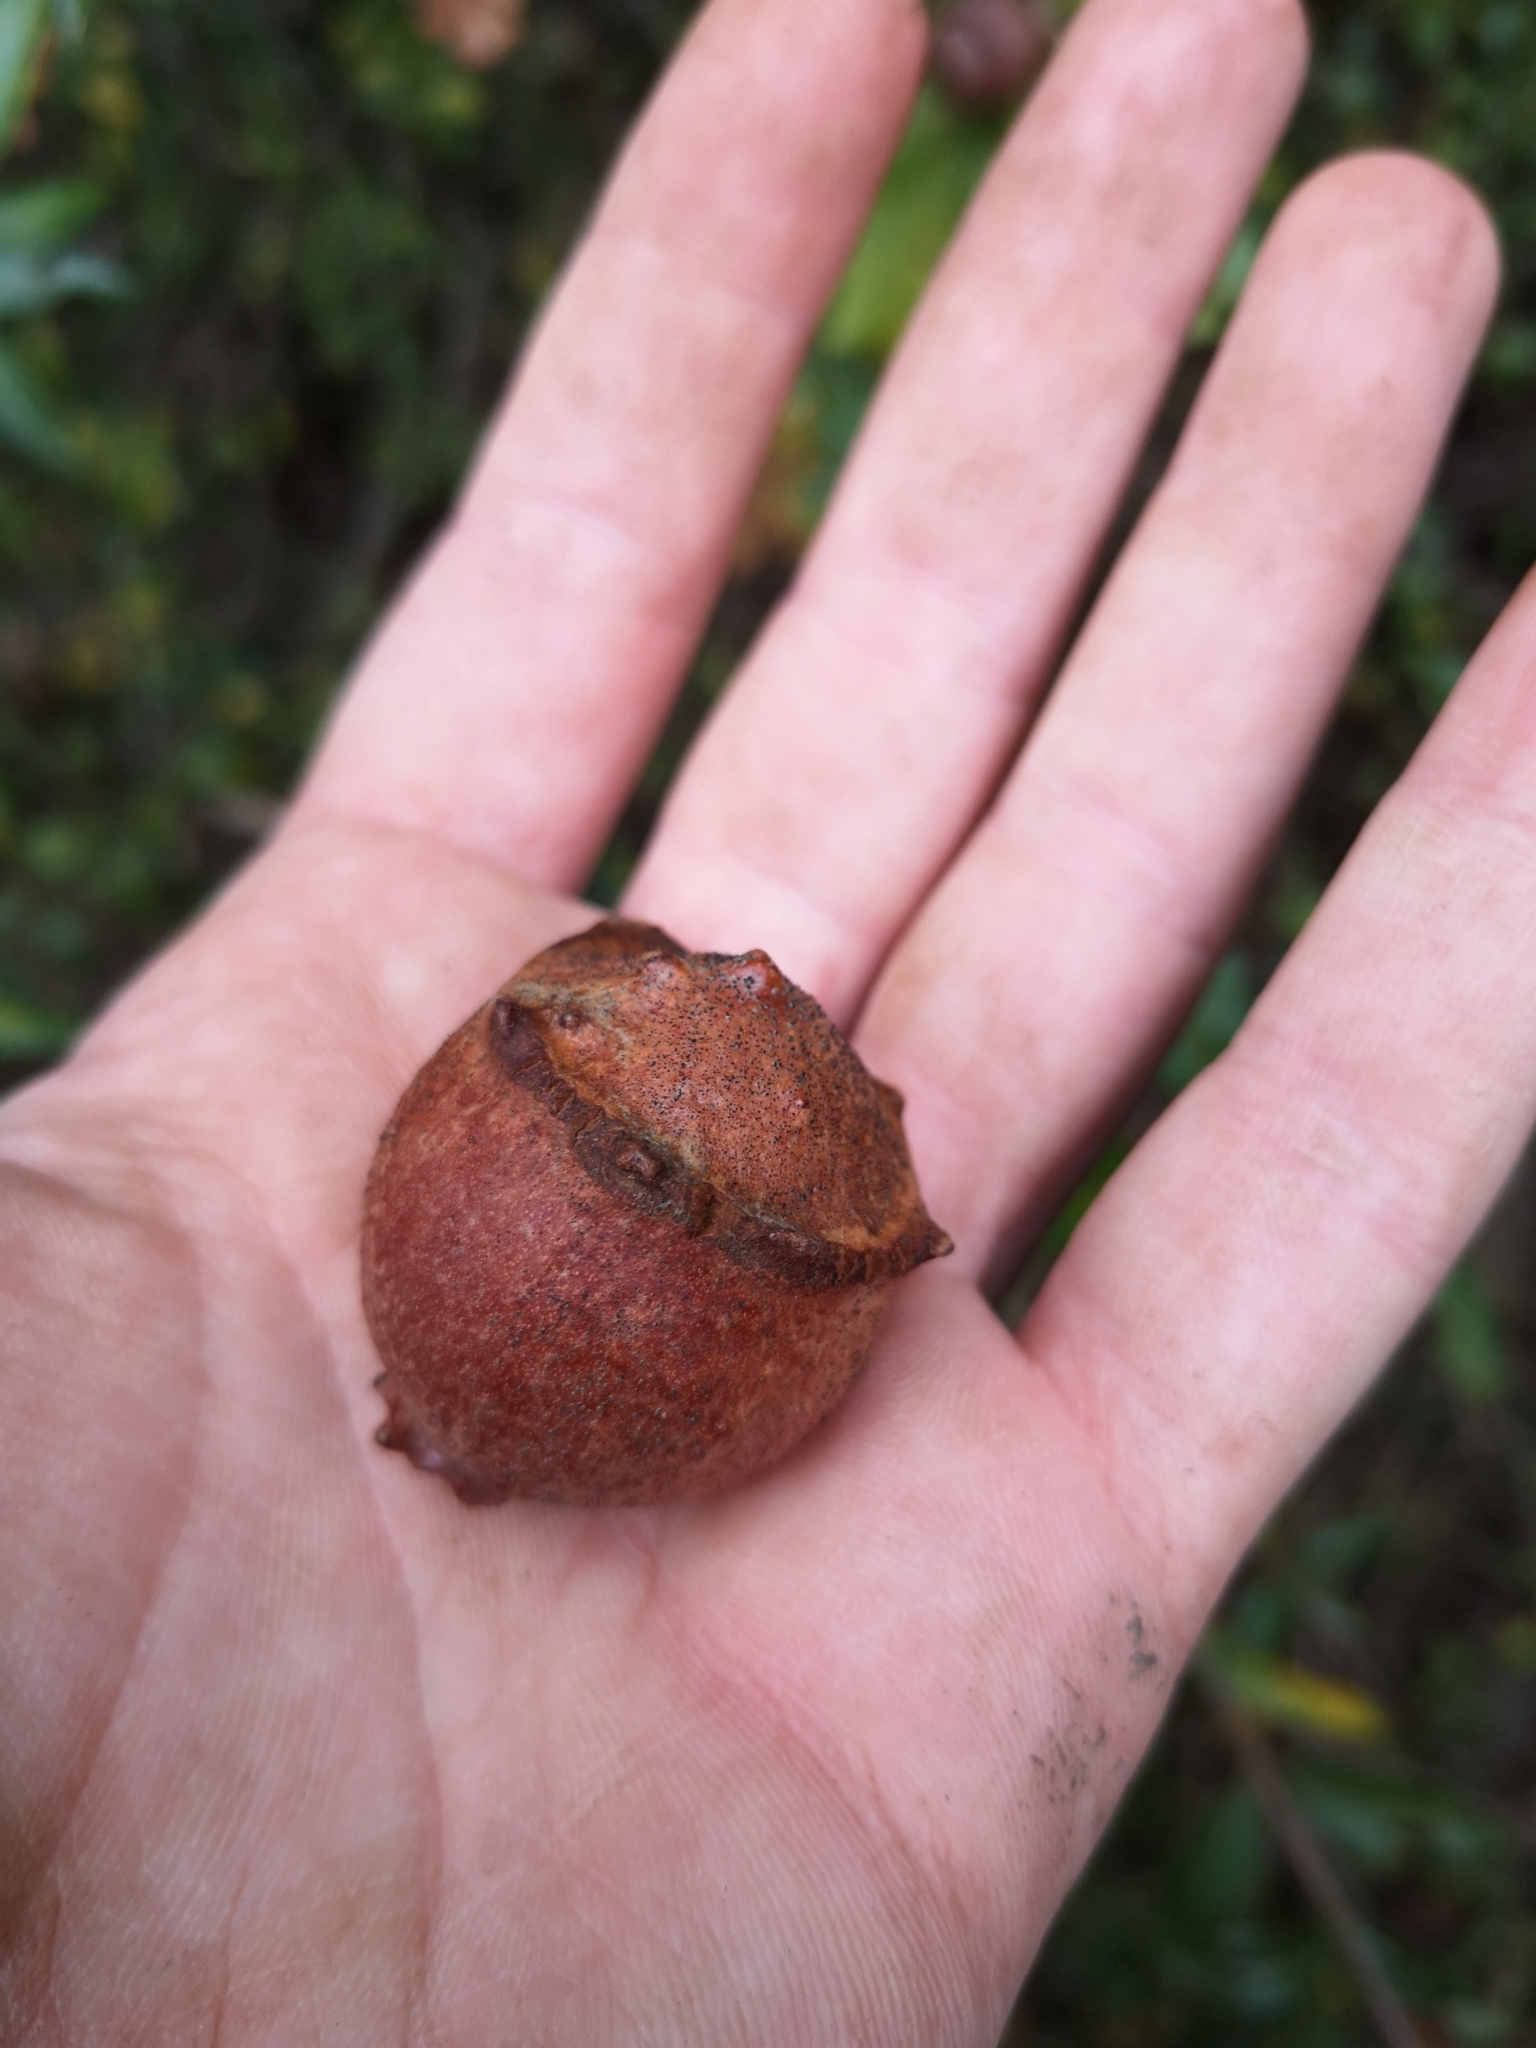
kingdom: Animalia
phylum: Arthropoda
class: Insecta
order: Hymenoptera
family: Cynipidae
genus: Andricus
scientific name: Andricus quercustozae
